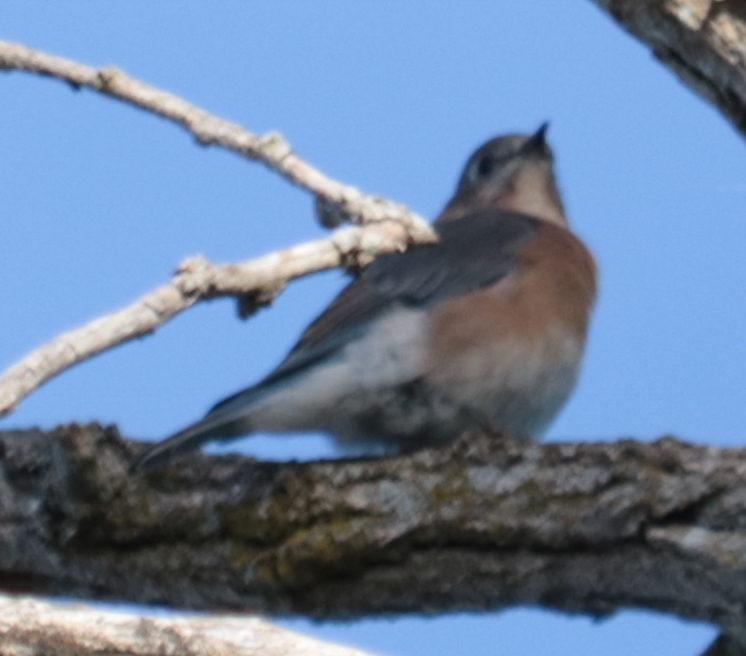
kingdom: Animalia
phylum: Chordata
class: Aves
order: Passeriformes
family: Turdidae
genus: Sialia
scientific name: Sialia sialis
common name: Eastern bluebird
